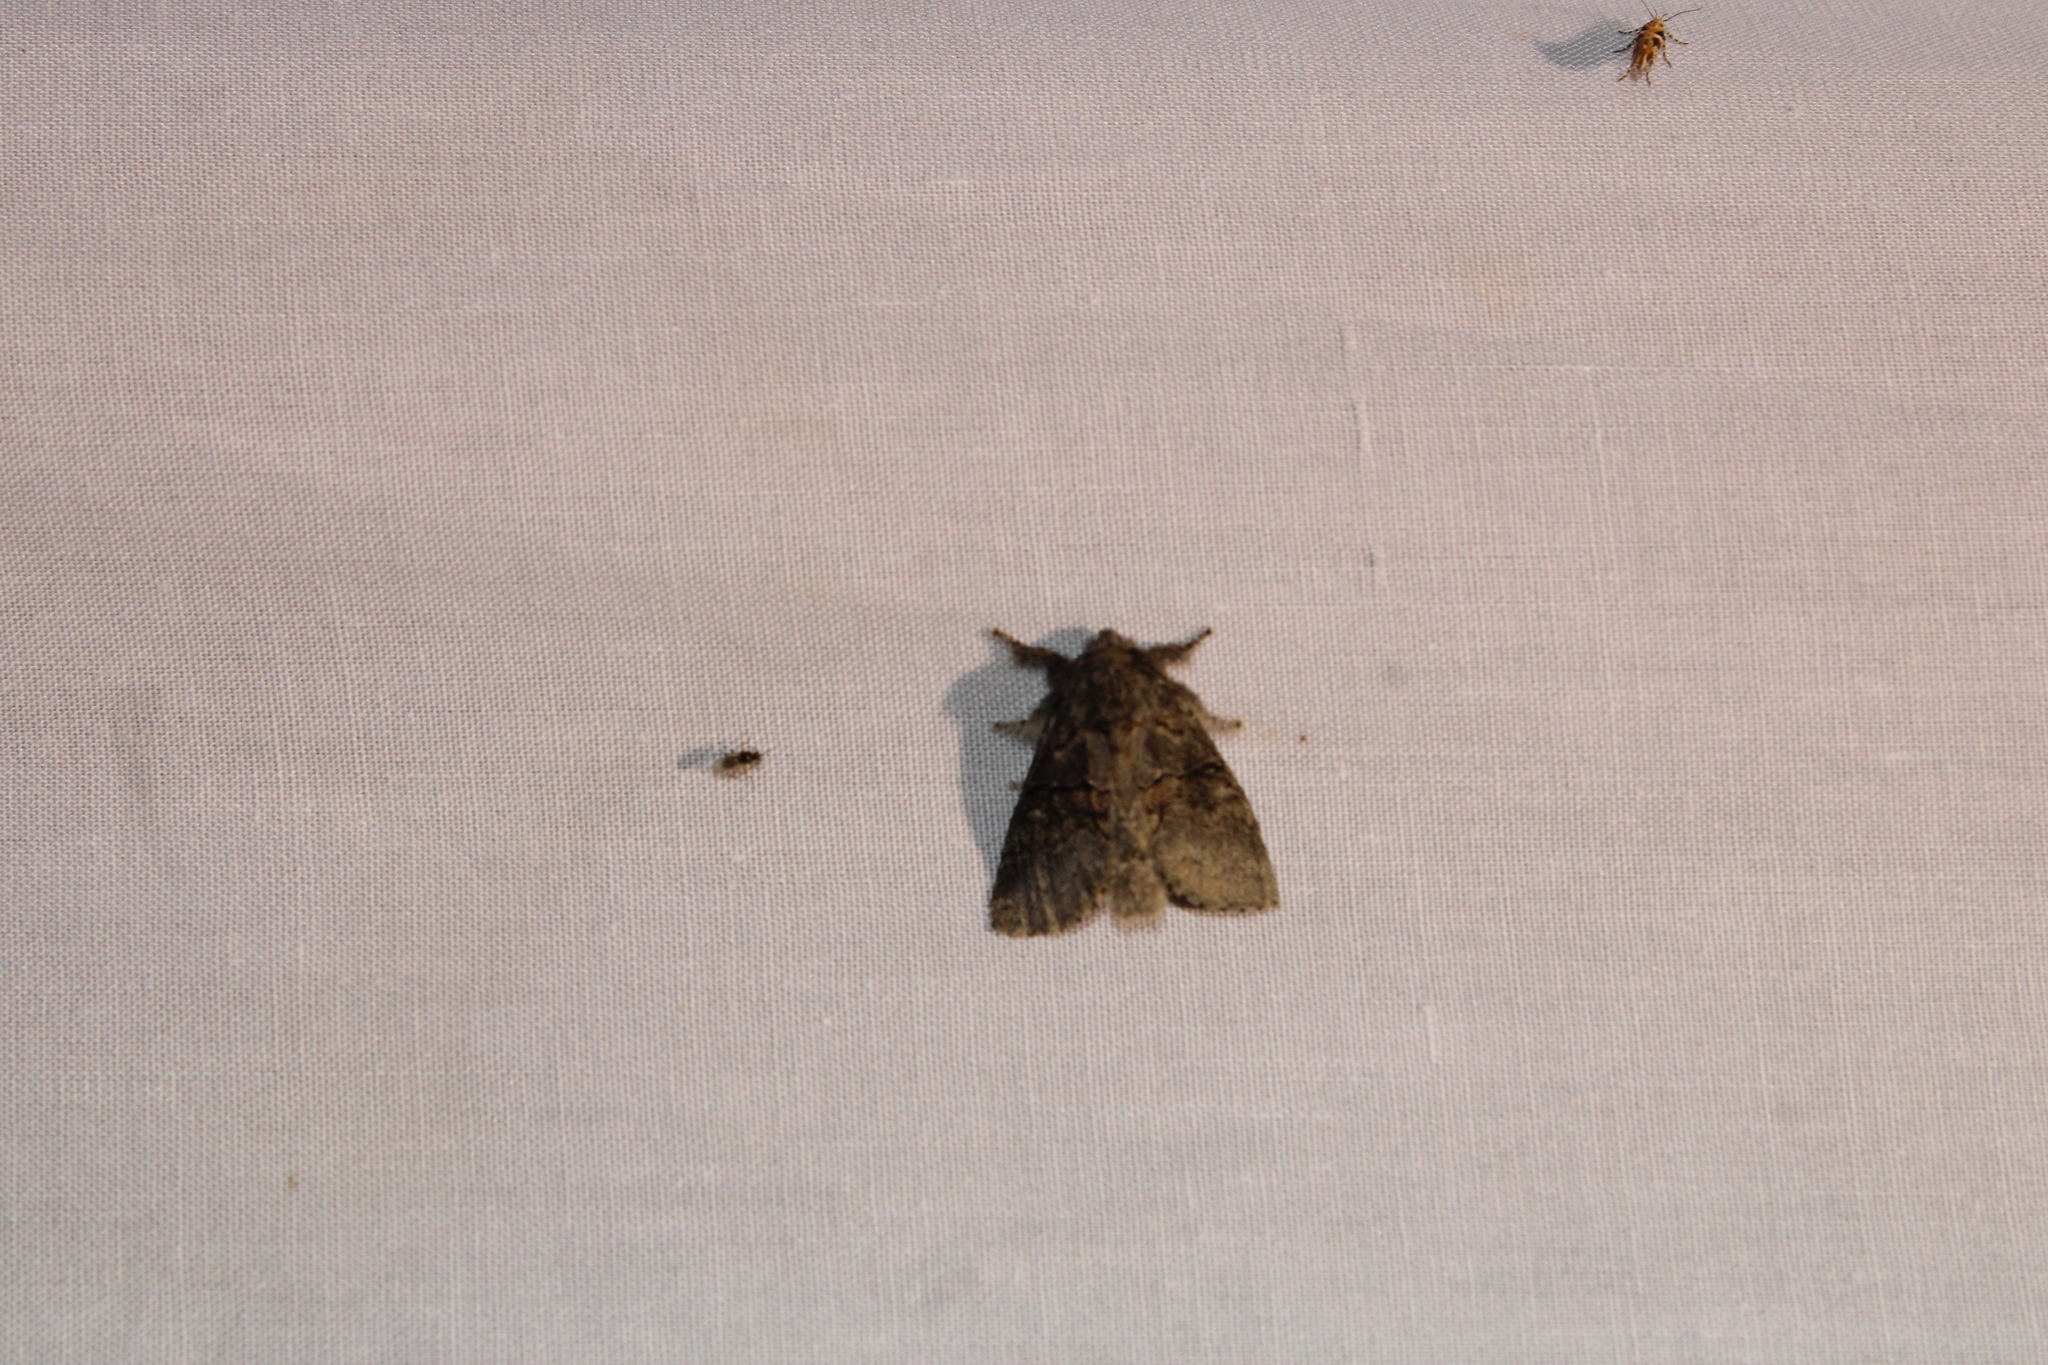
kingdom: Animalia
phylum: Arthropoda
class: Insecta
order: Lepidoptera
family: Notodontidae
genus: Gluphisia
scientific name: Gluphisia septentrionis
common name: Common gluphisia
